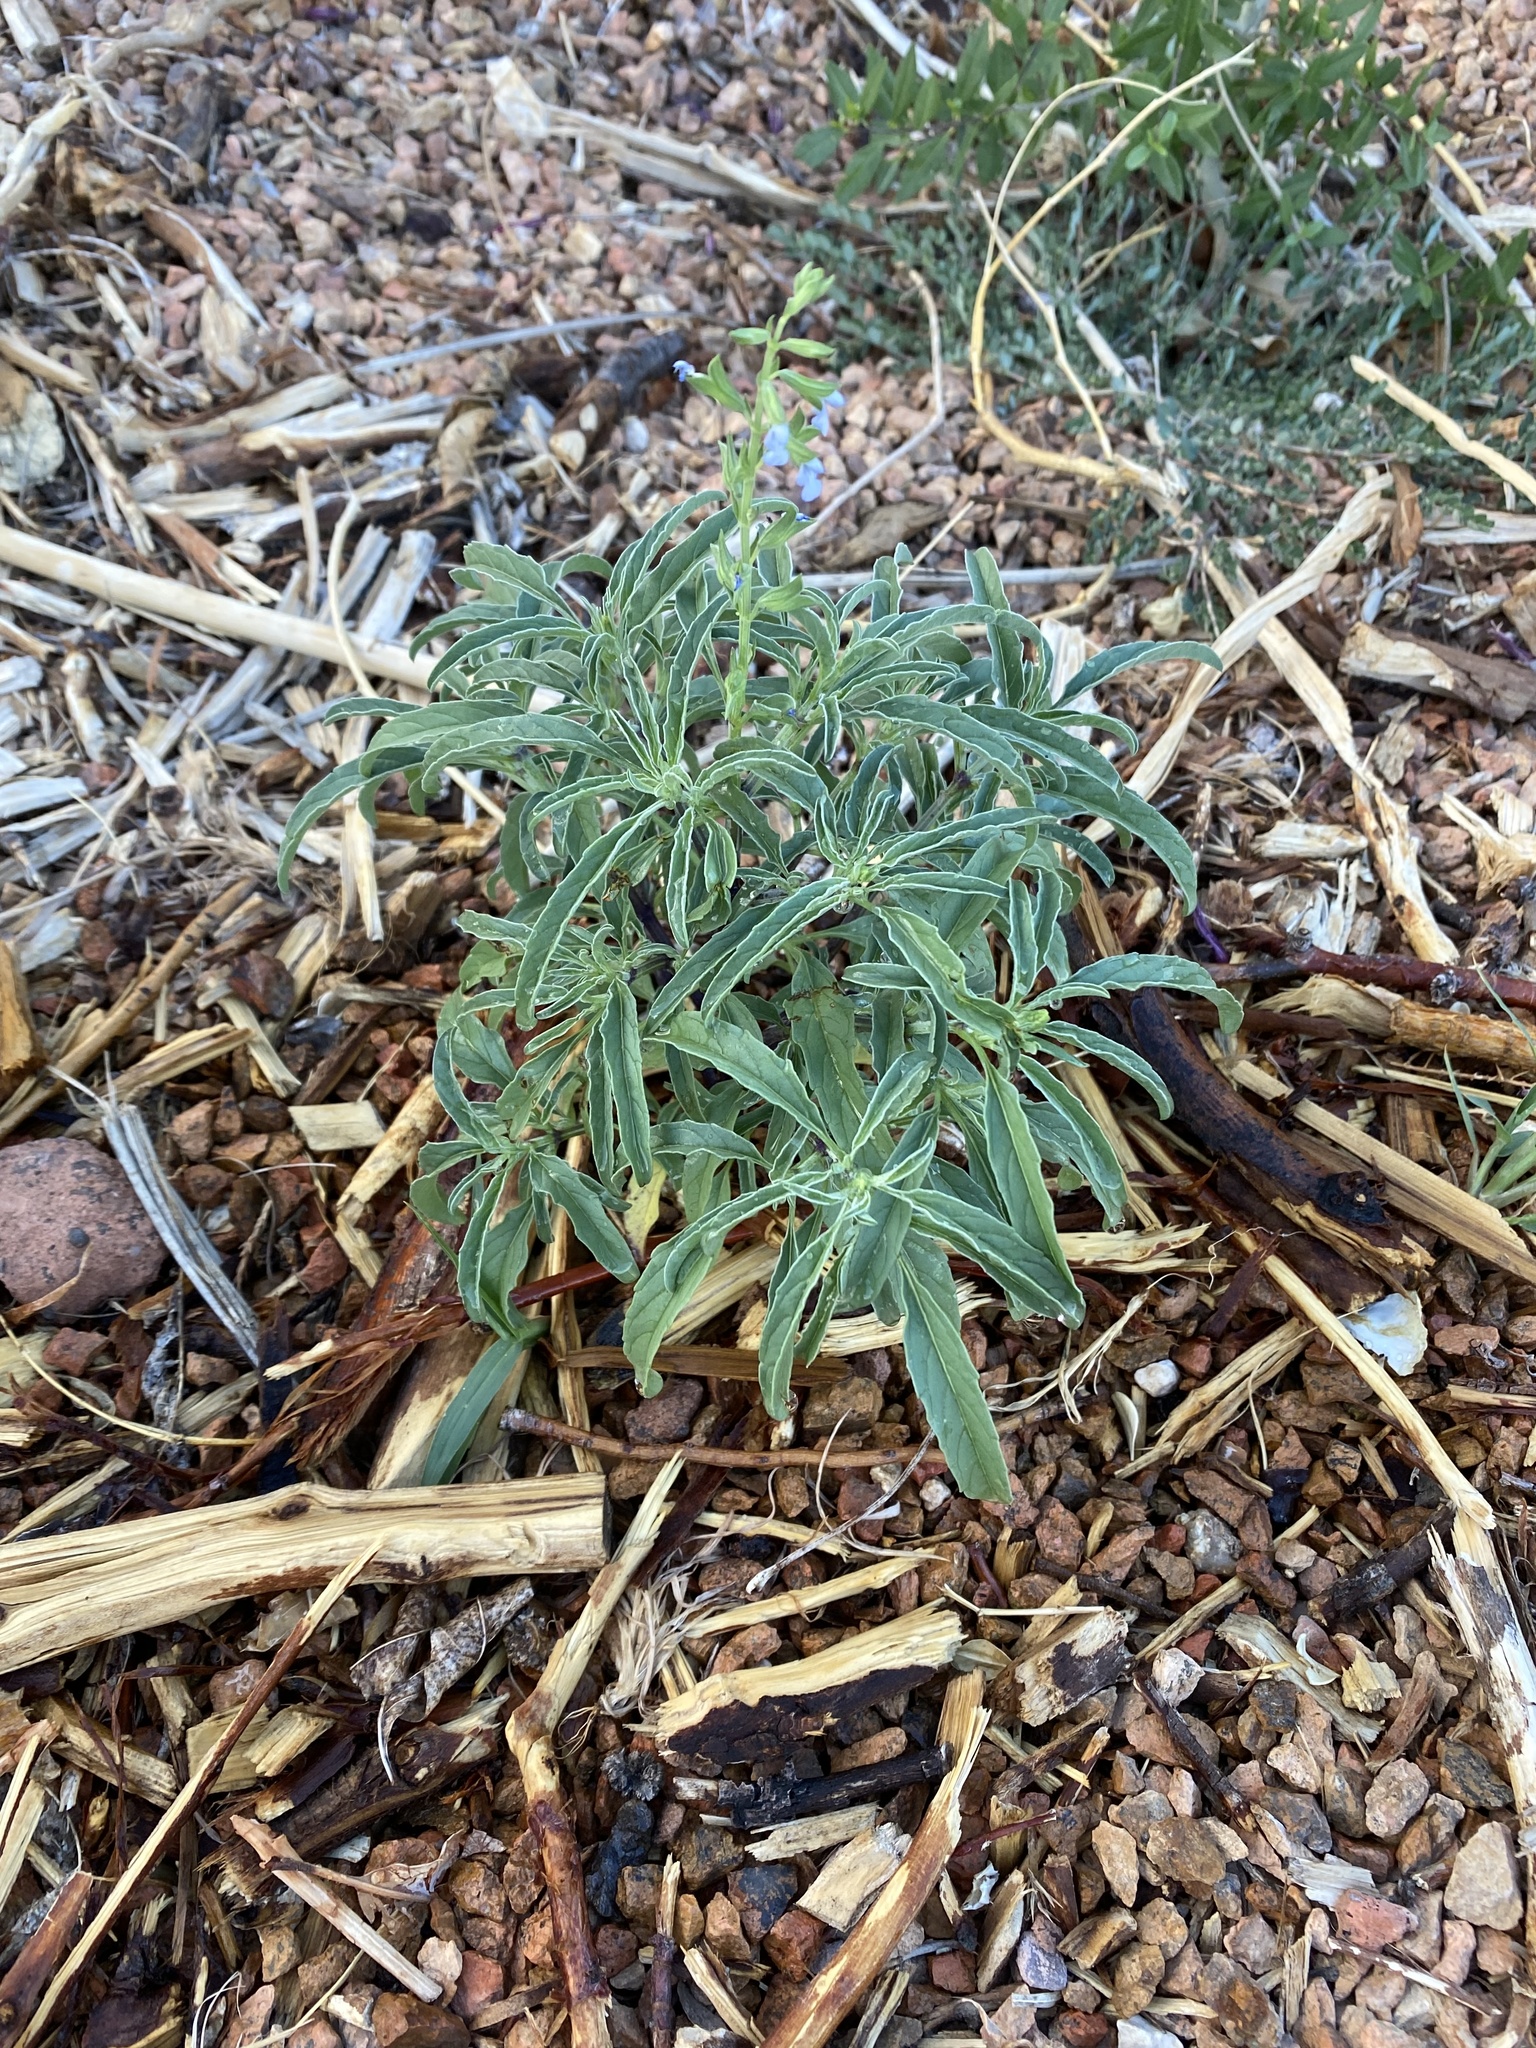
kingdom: Plantae
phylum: Tracheophyta
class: Magnoliopsida
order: Lamiales
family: Lamiaceae
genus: Salvia
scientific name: Salvia reflexa
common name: Mintweed
